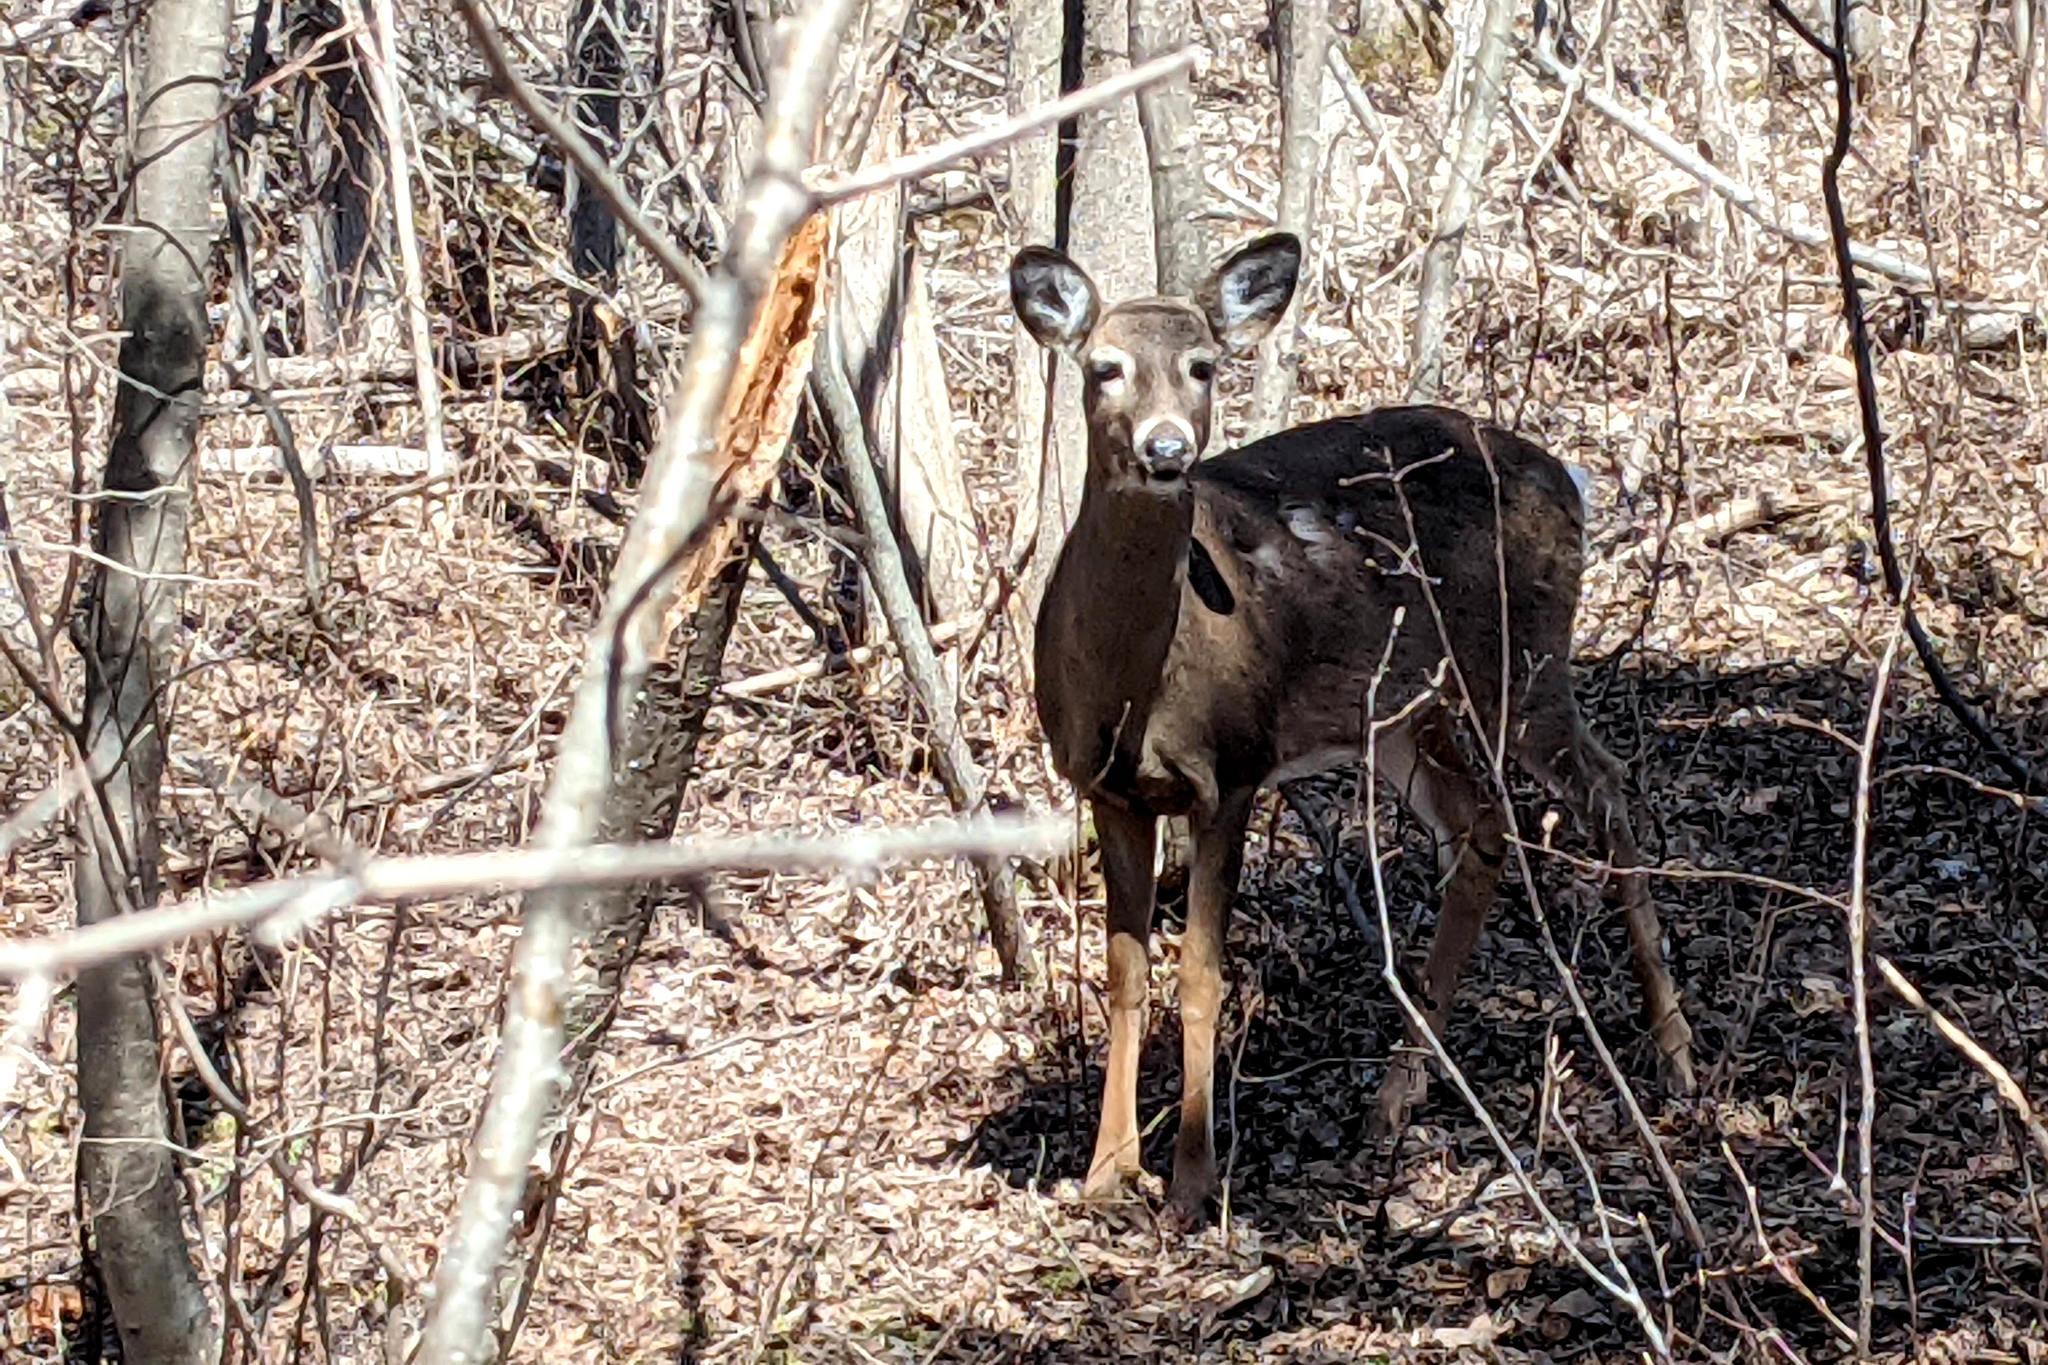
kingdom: Animalia
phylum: Chordata
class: Mammalia
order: Artiodactyla
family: Cervidae
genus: Odocoileus
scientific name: Odocoileus virginianus
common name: White-tailed deer
